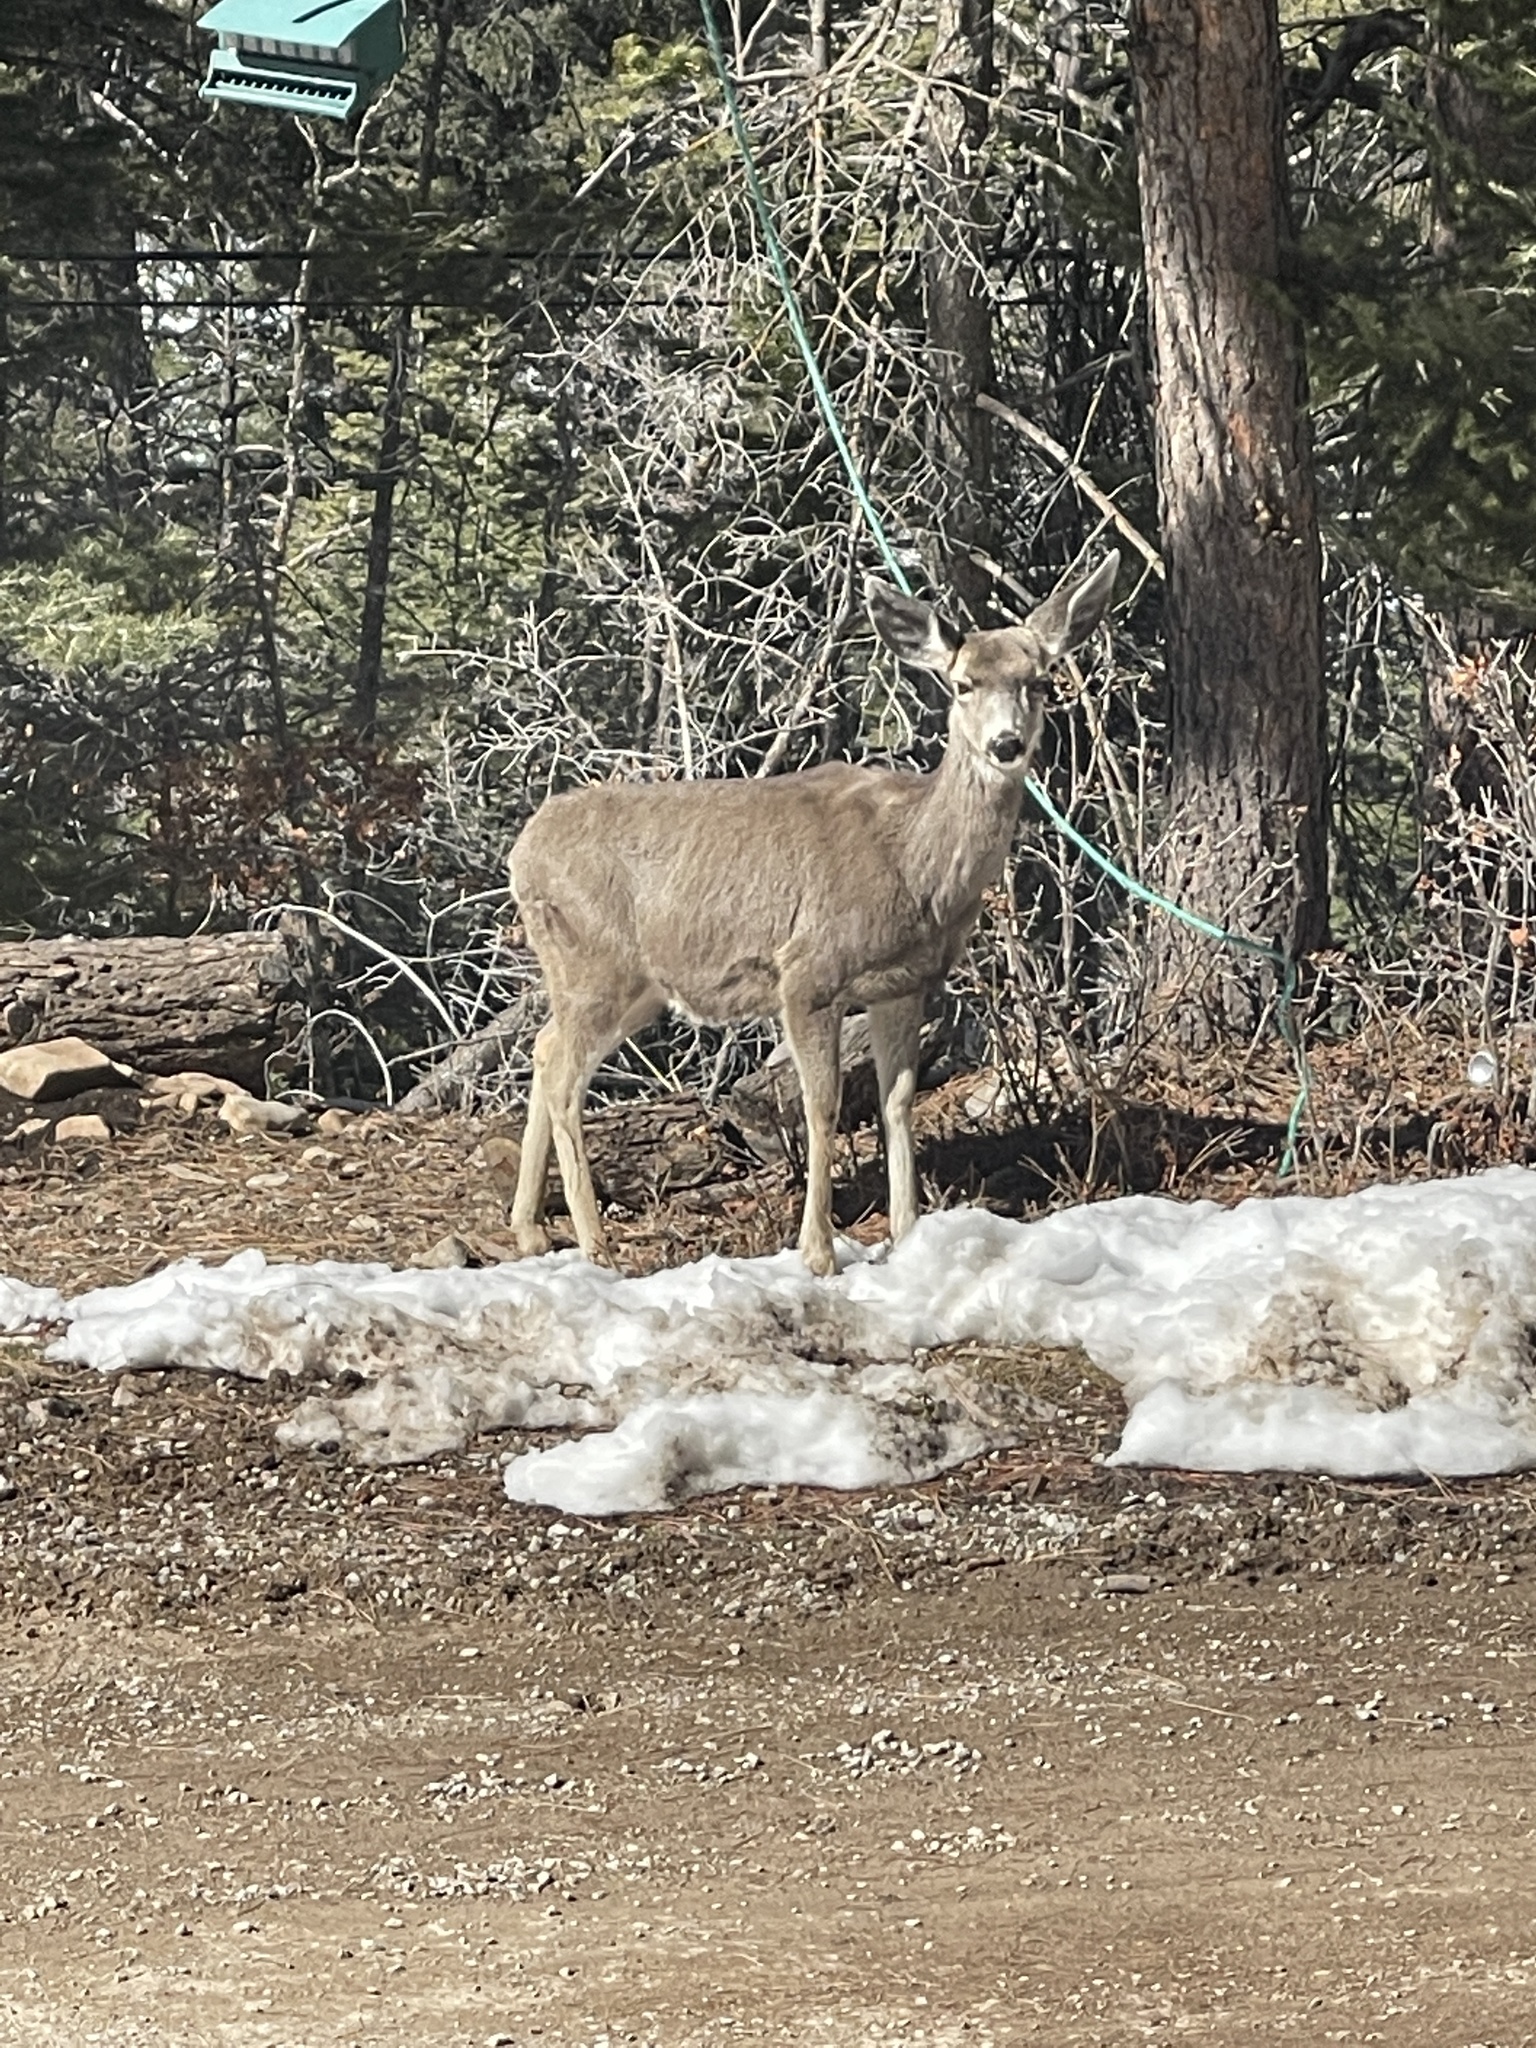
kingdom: Animalia
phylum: Chordata
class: Mammalia
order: Artiodactyla
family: Cervidae
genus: Odocoileus
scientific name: Odocoileus hemionus
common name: Mule deer
